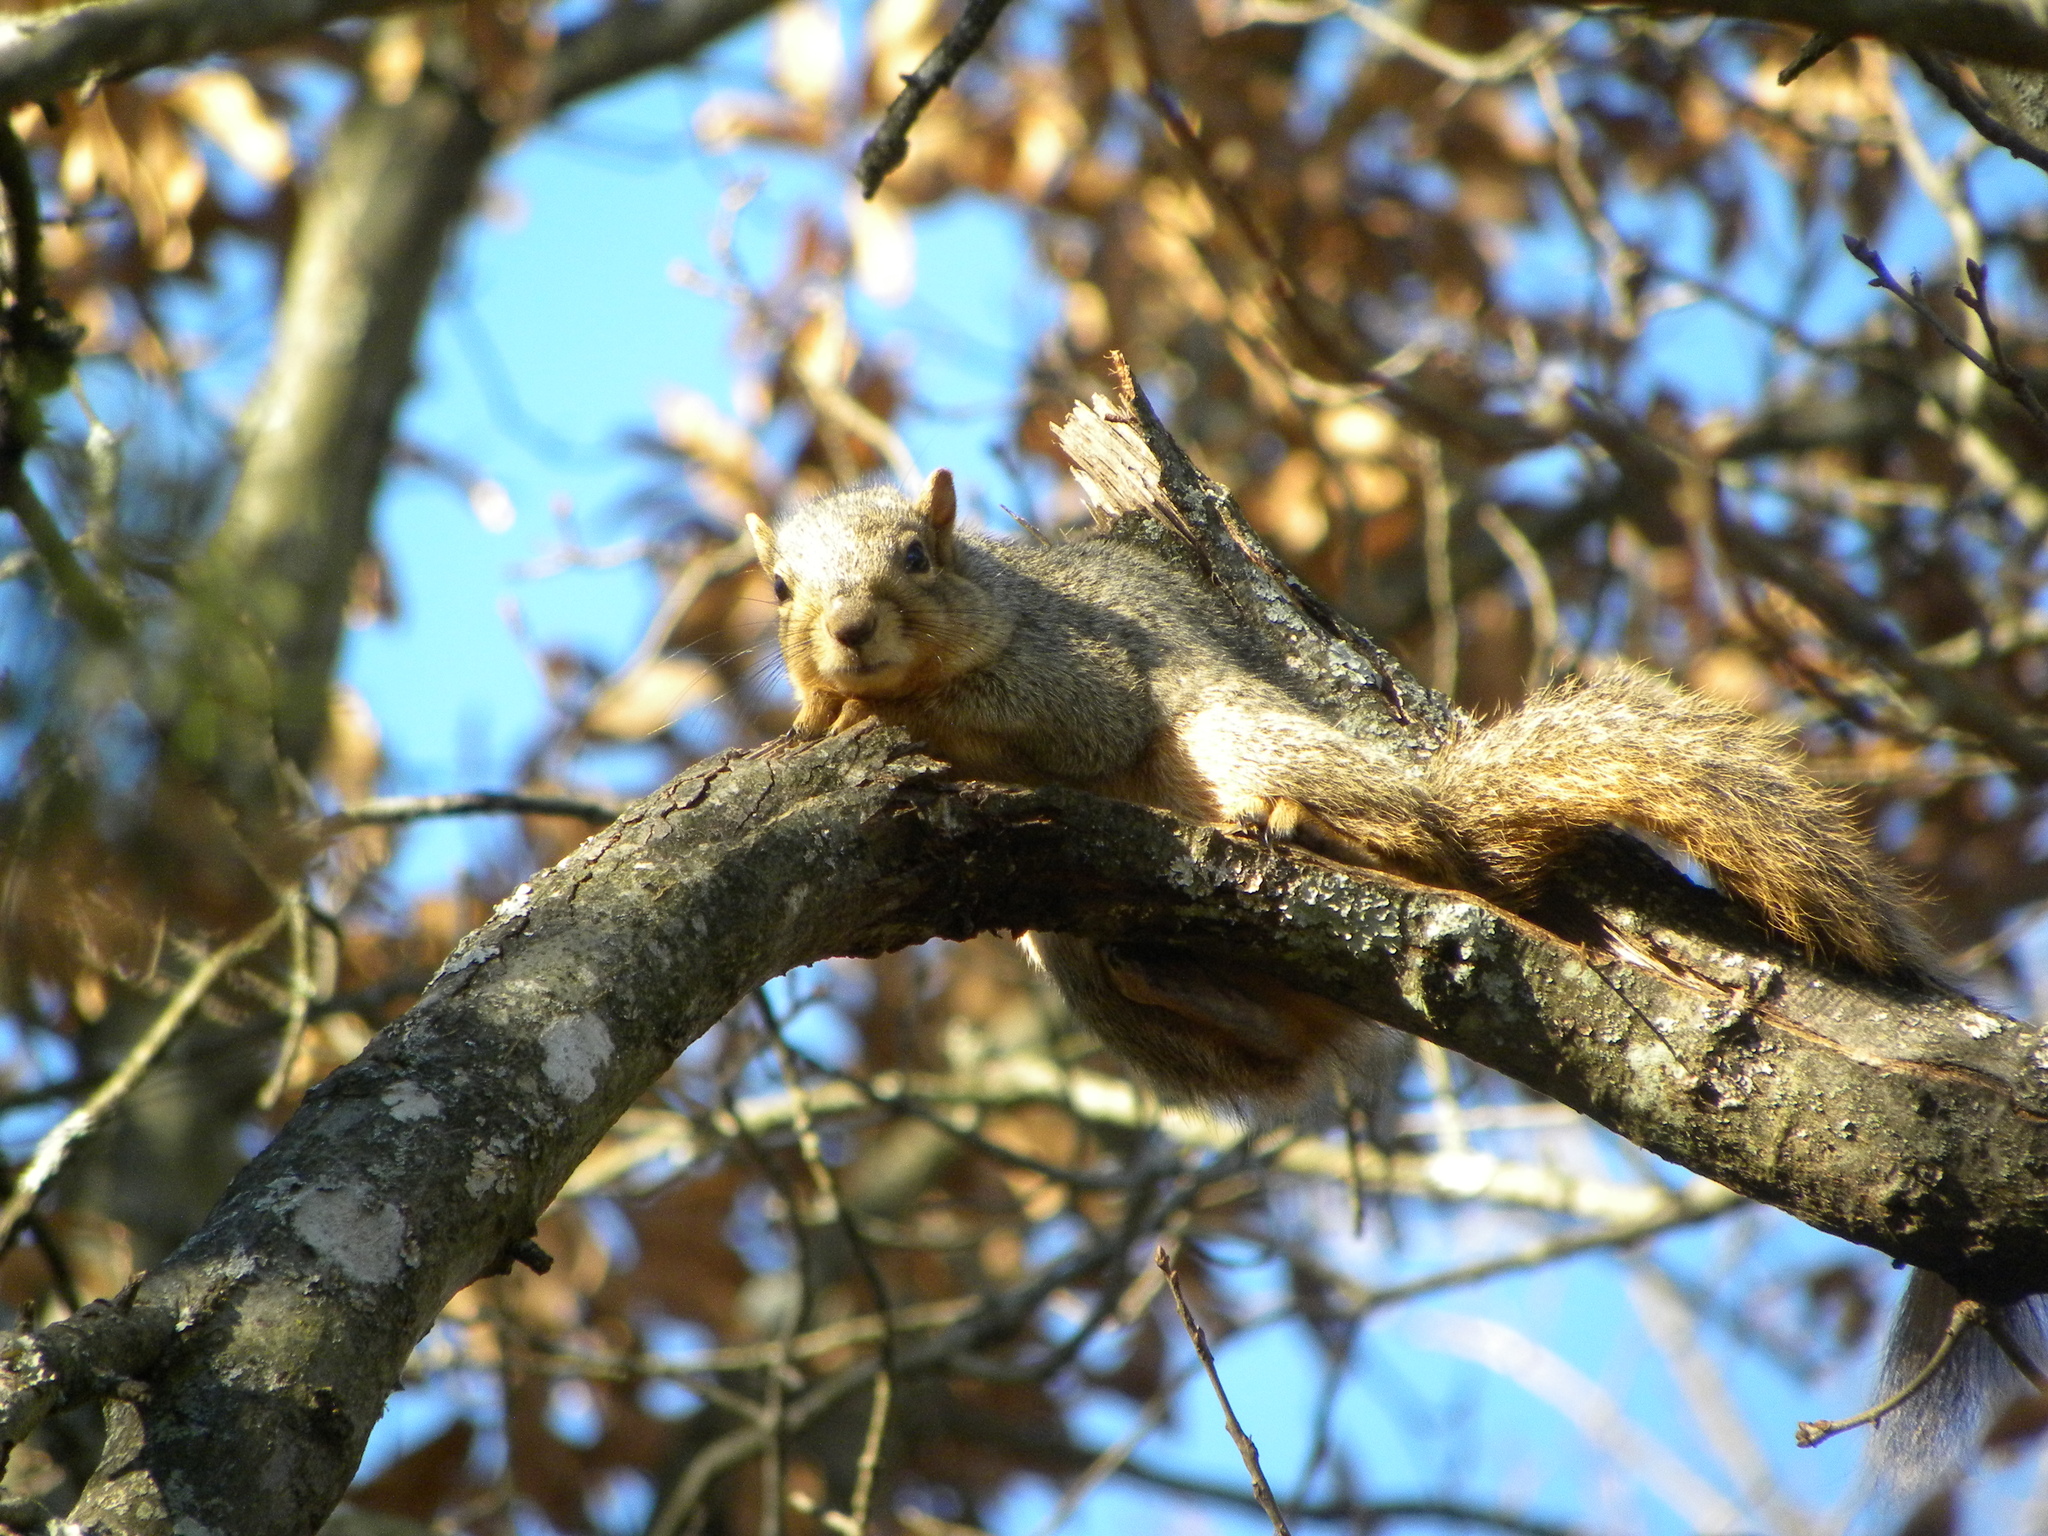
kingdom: Animalia
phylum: Chordata
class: Mammalia
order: Rodentia
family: Sciuridae
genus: Sciurus
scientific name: Sciurus niger
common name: Fox squirrel
